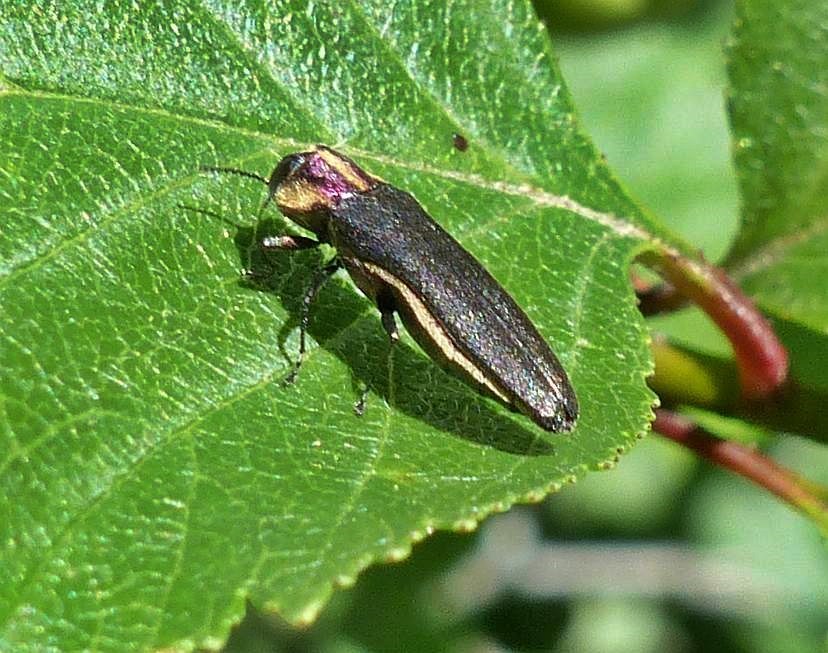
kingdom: Animalia
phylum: Arthropoda
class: Insecta
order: Coleoptera
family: Buprestidae
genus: Agrilus
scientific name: Agrilus vittaticollis
